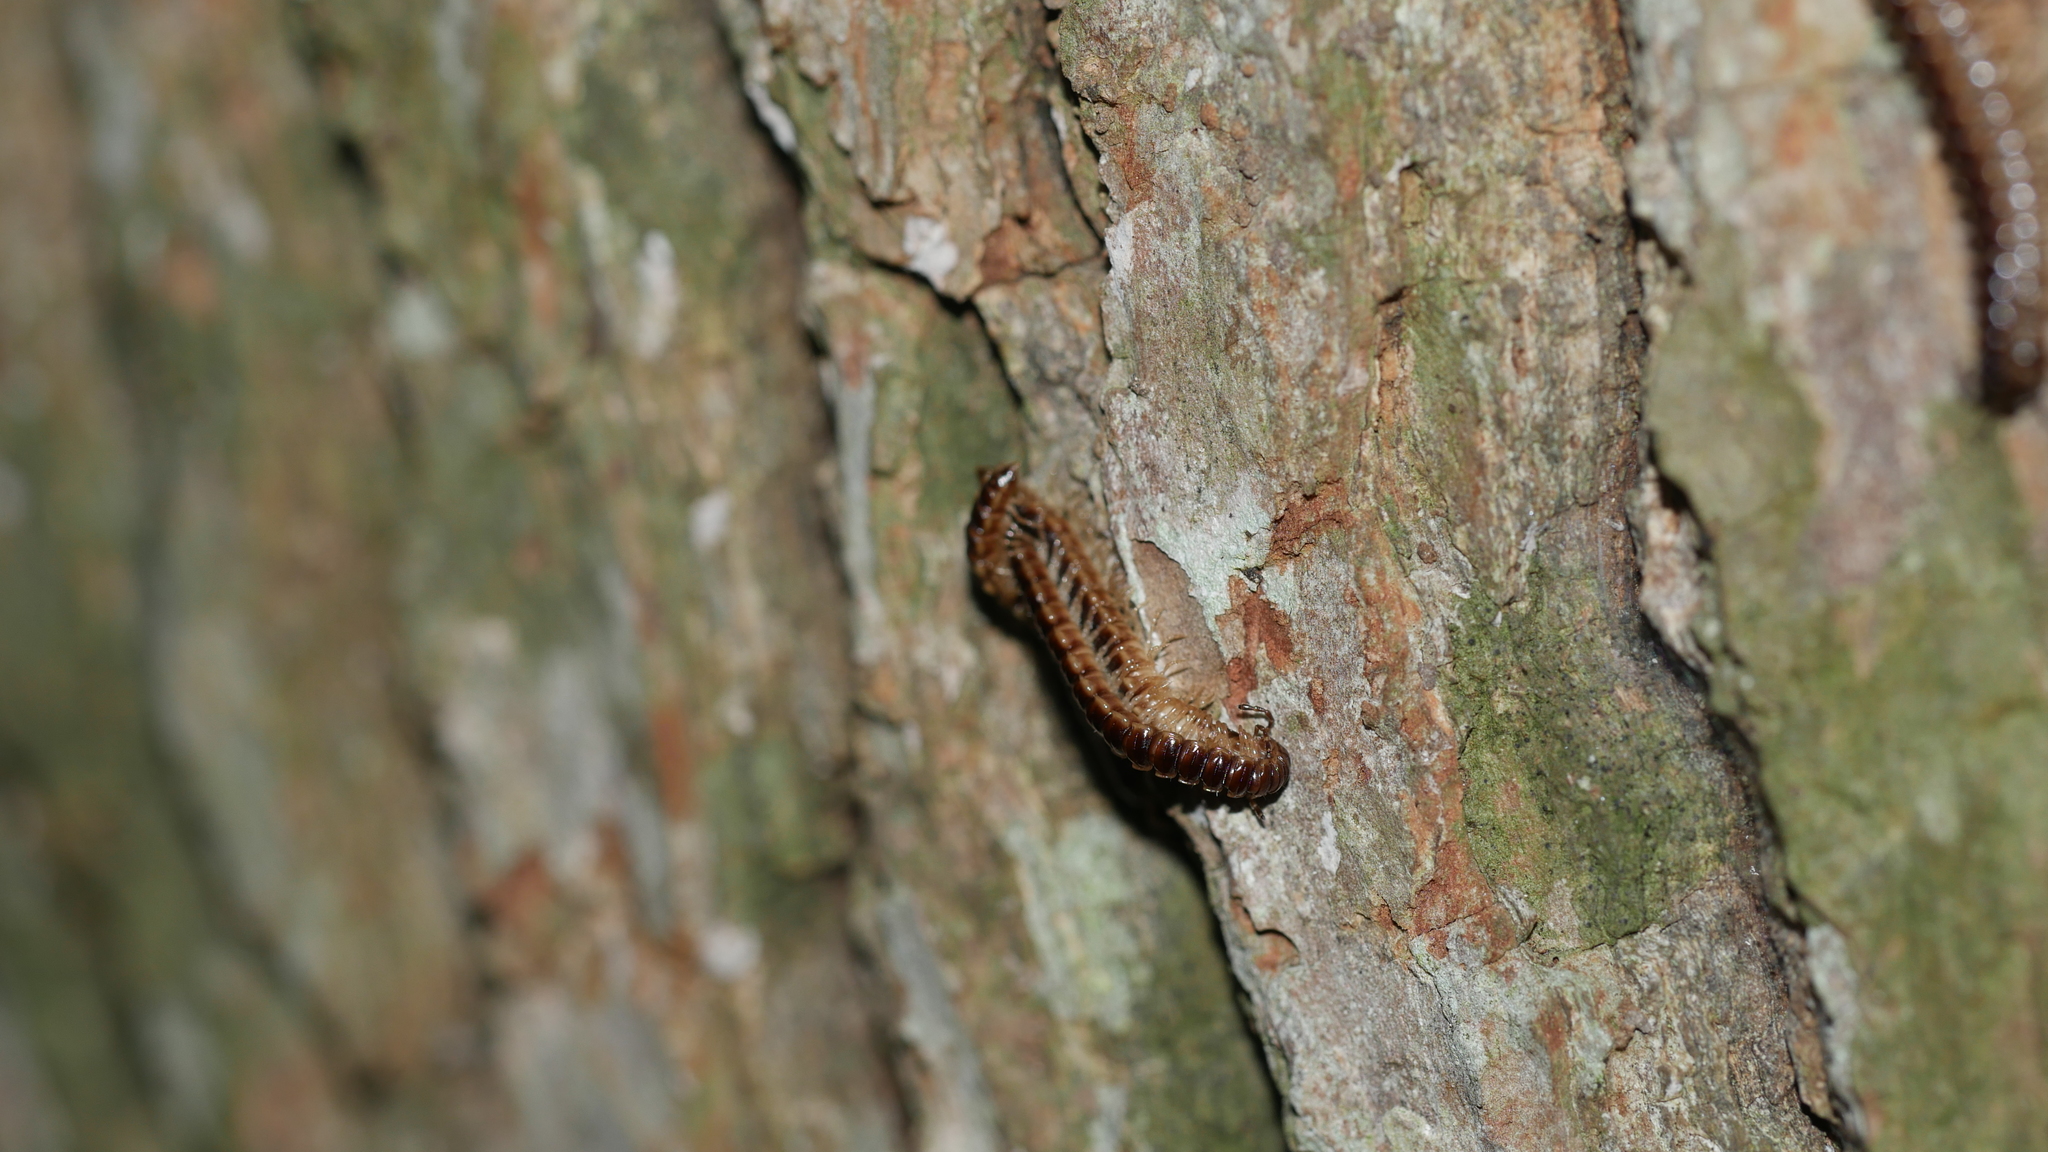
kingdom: Animalia
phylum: Arthropoda
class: Diplopoda
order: Polydesmida
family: Paradoxosomatidae
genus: Oxidus
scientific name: Oxidus gracilis
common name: Greenhouse millipede
